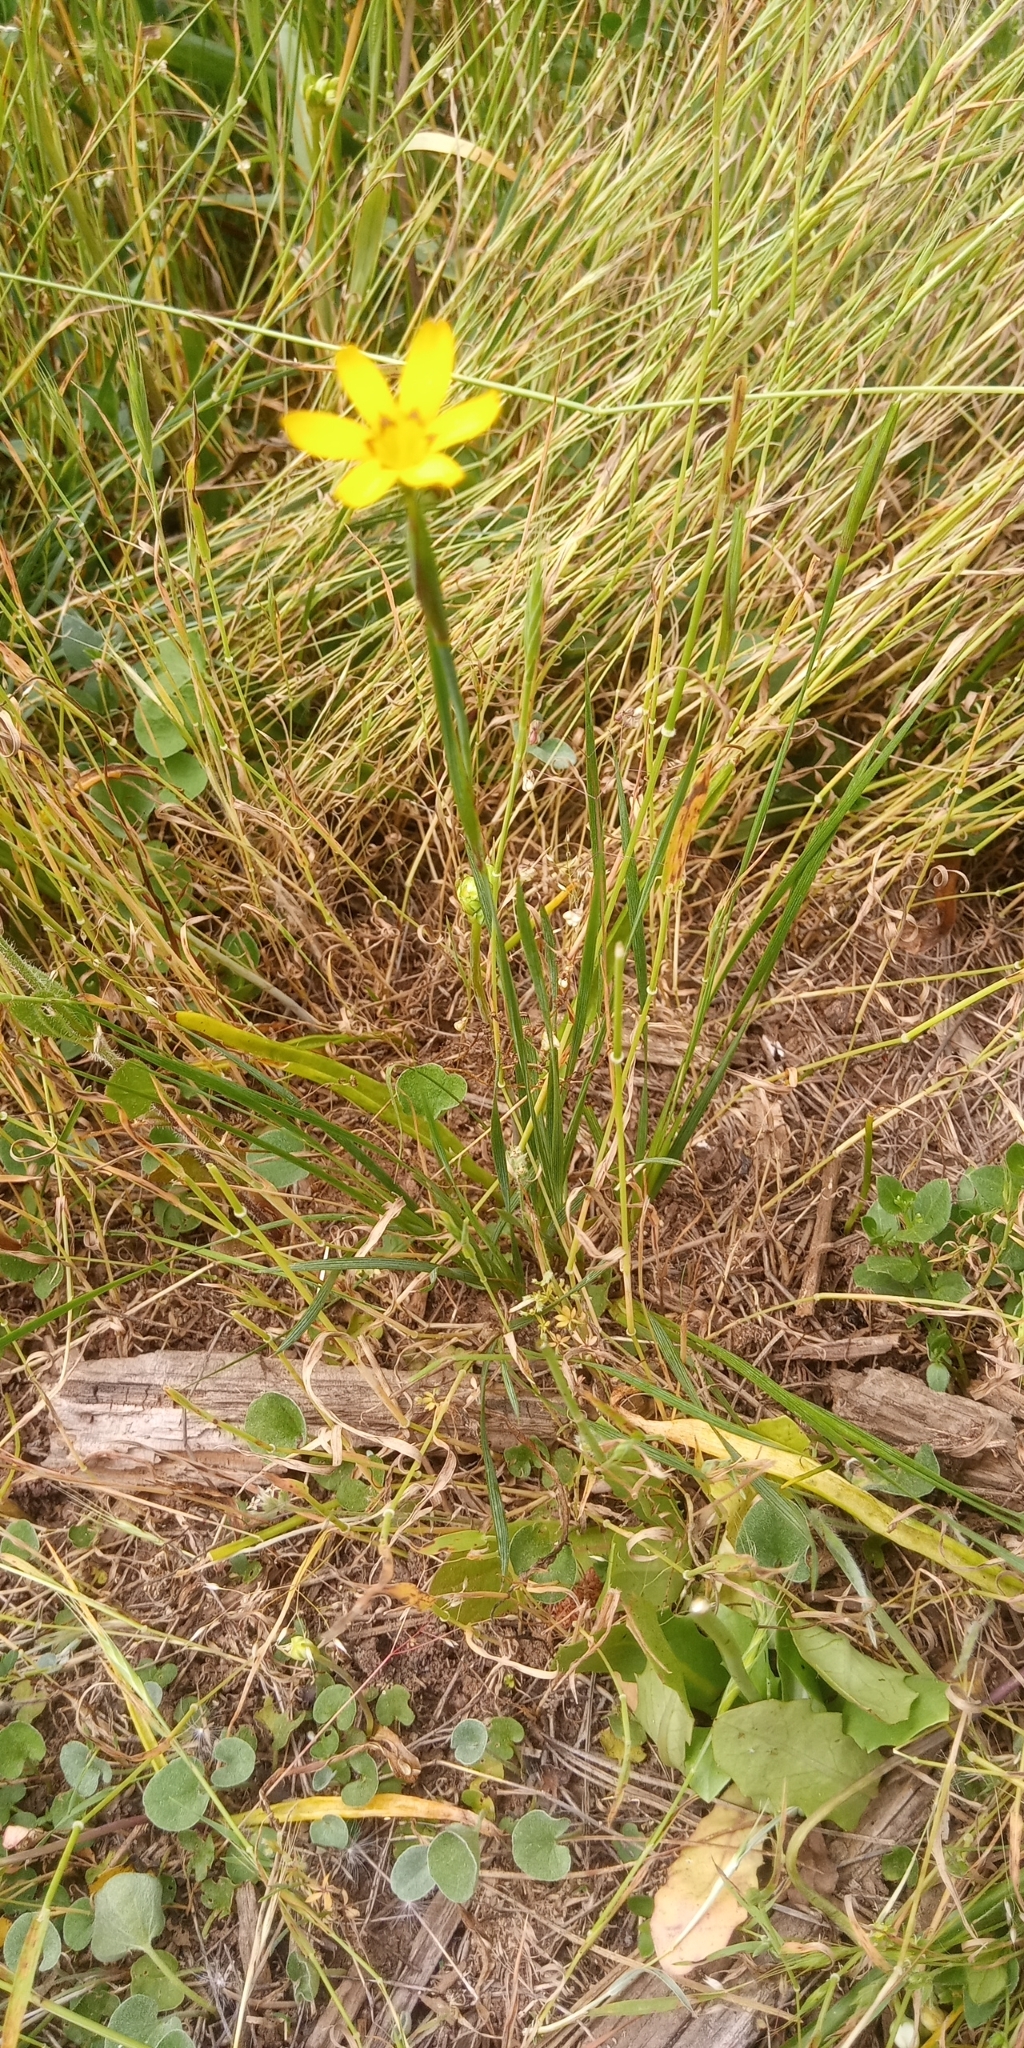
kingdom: Plantae
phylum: Tracheophyta
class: Liliopsida
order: Asparagales
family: Iridaceae
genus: Sisyrinchium
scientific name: Sisyrinchium graminifolium
